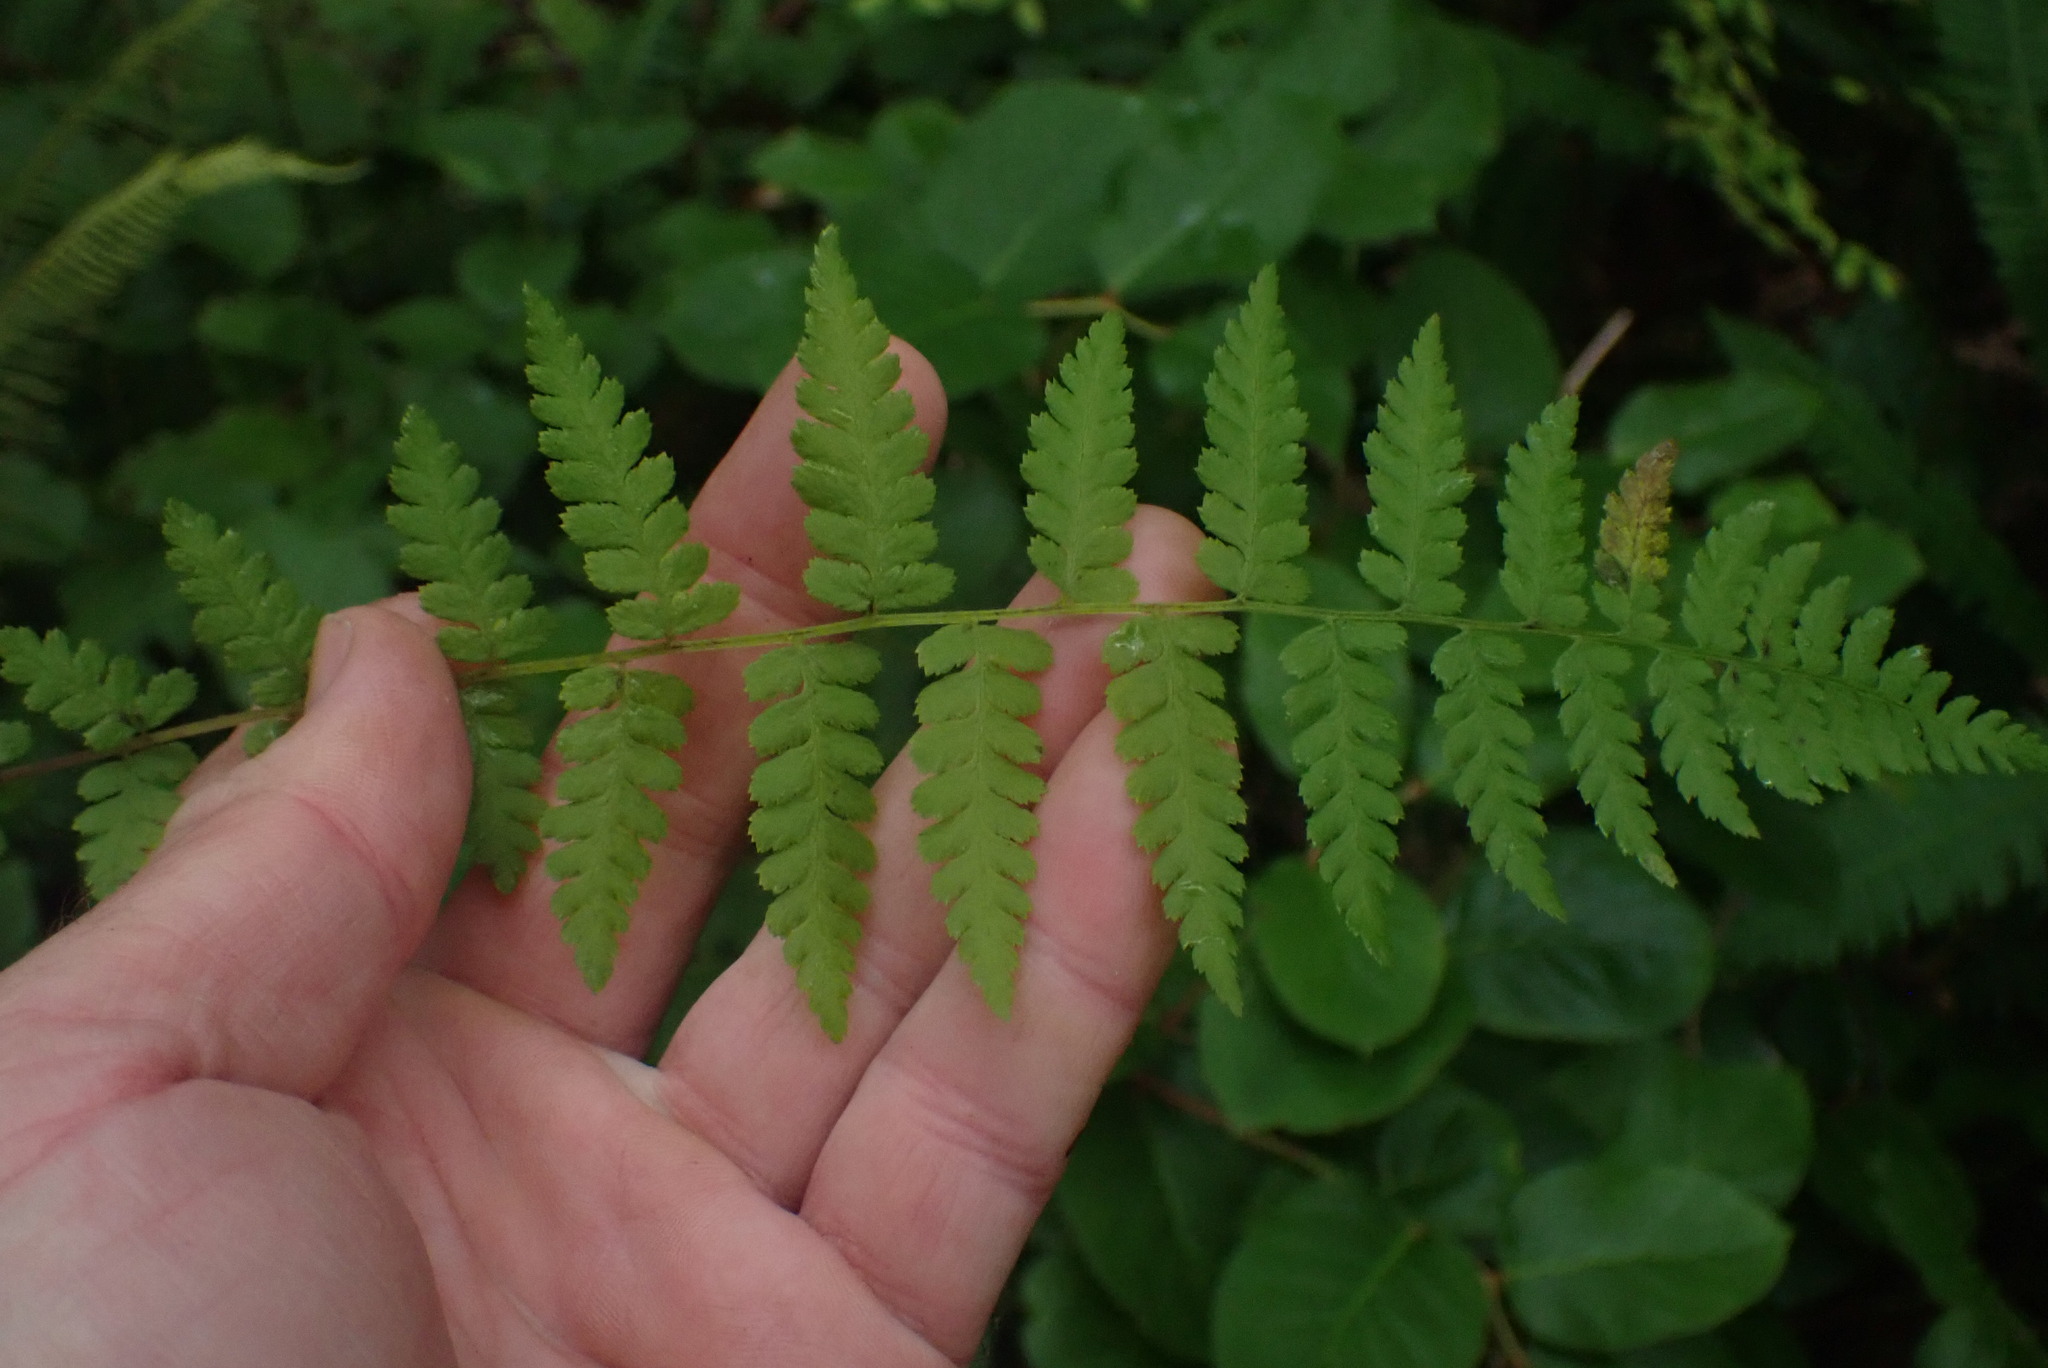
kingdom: Plantae
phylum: Tracheophyta
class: Polypodiopsida
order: Polypodiales
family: Athyriaceae
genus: Athyrium
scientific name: Athyrium filix-femina
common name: Lady fern
